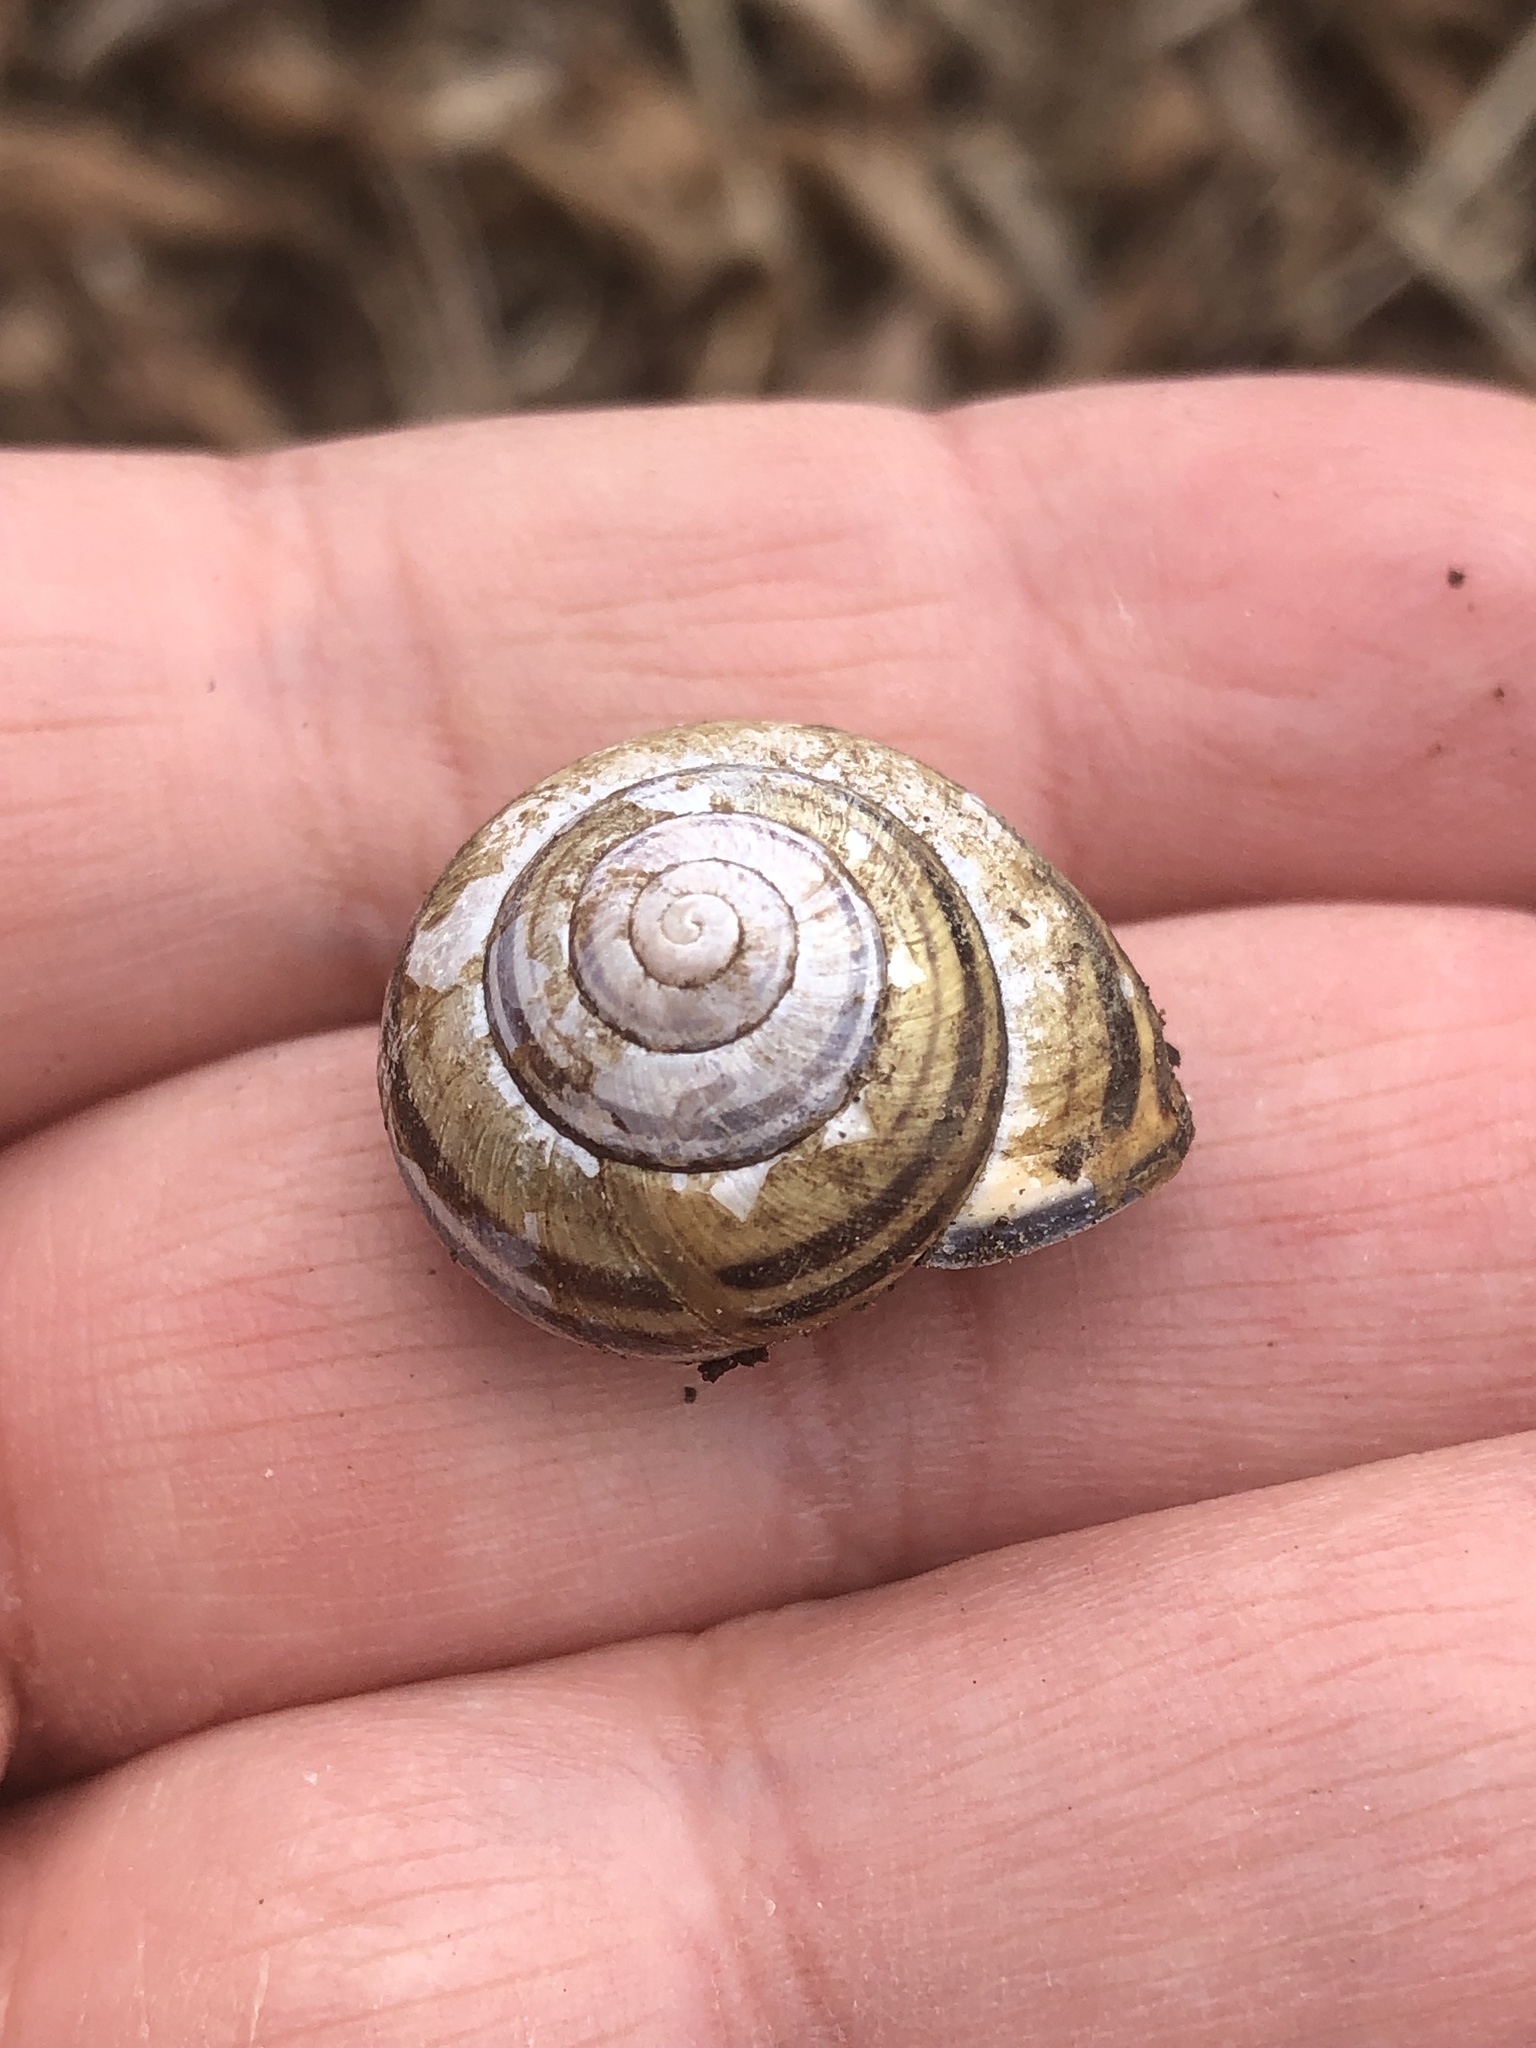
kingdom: Animalia
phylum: Mollusca
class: Gastropoda
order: Stylommatophora
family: Helicidae
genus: Cepaea
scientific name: Cepaea nemoralis
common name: Grovesnail
